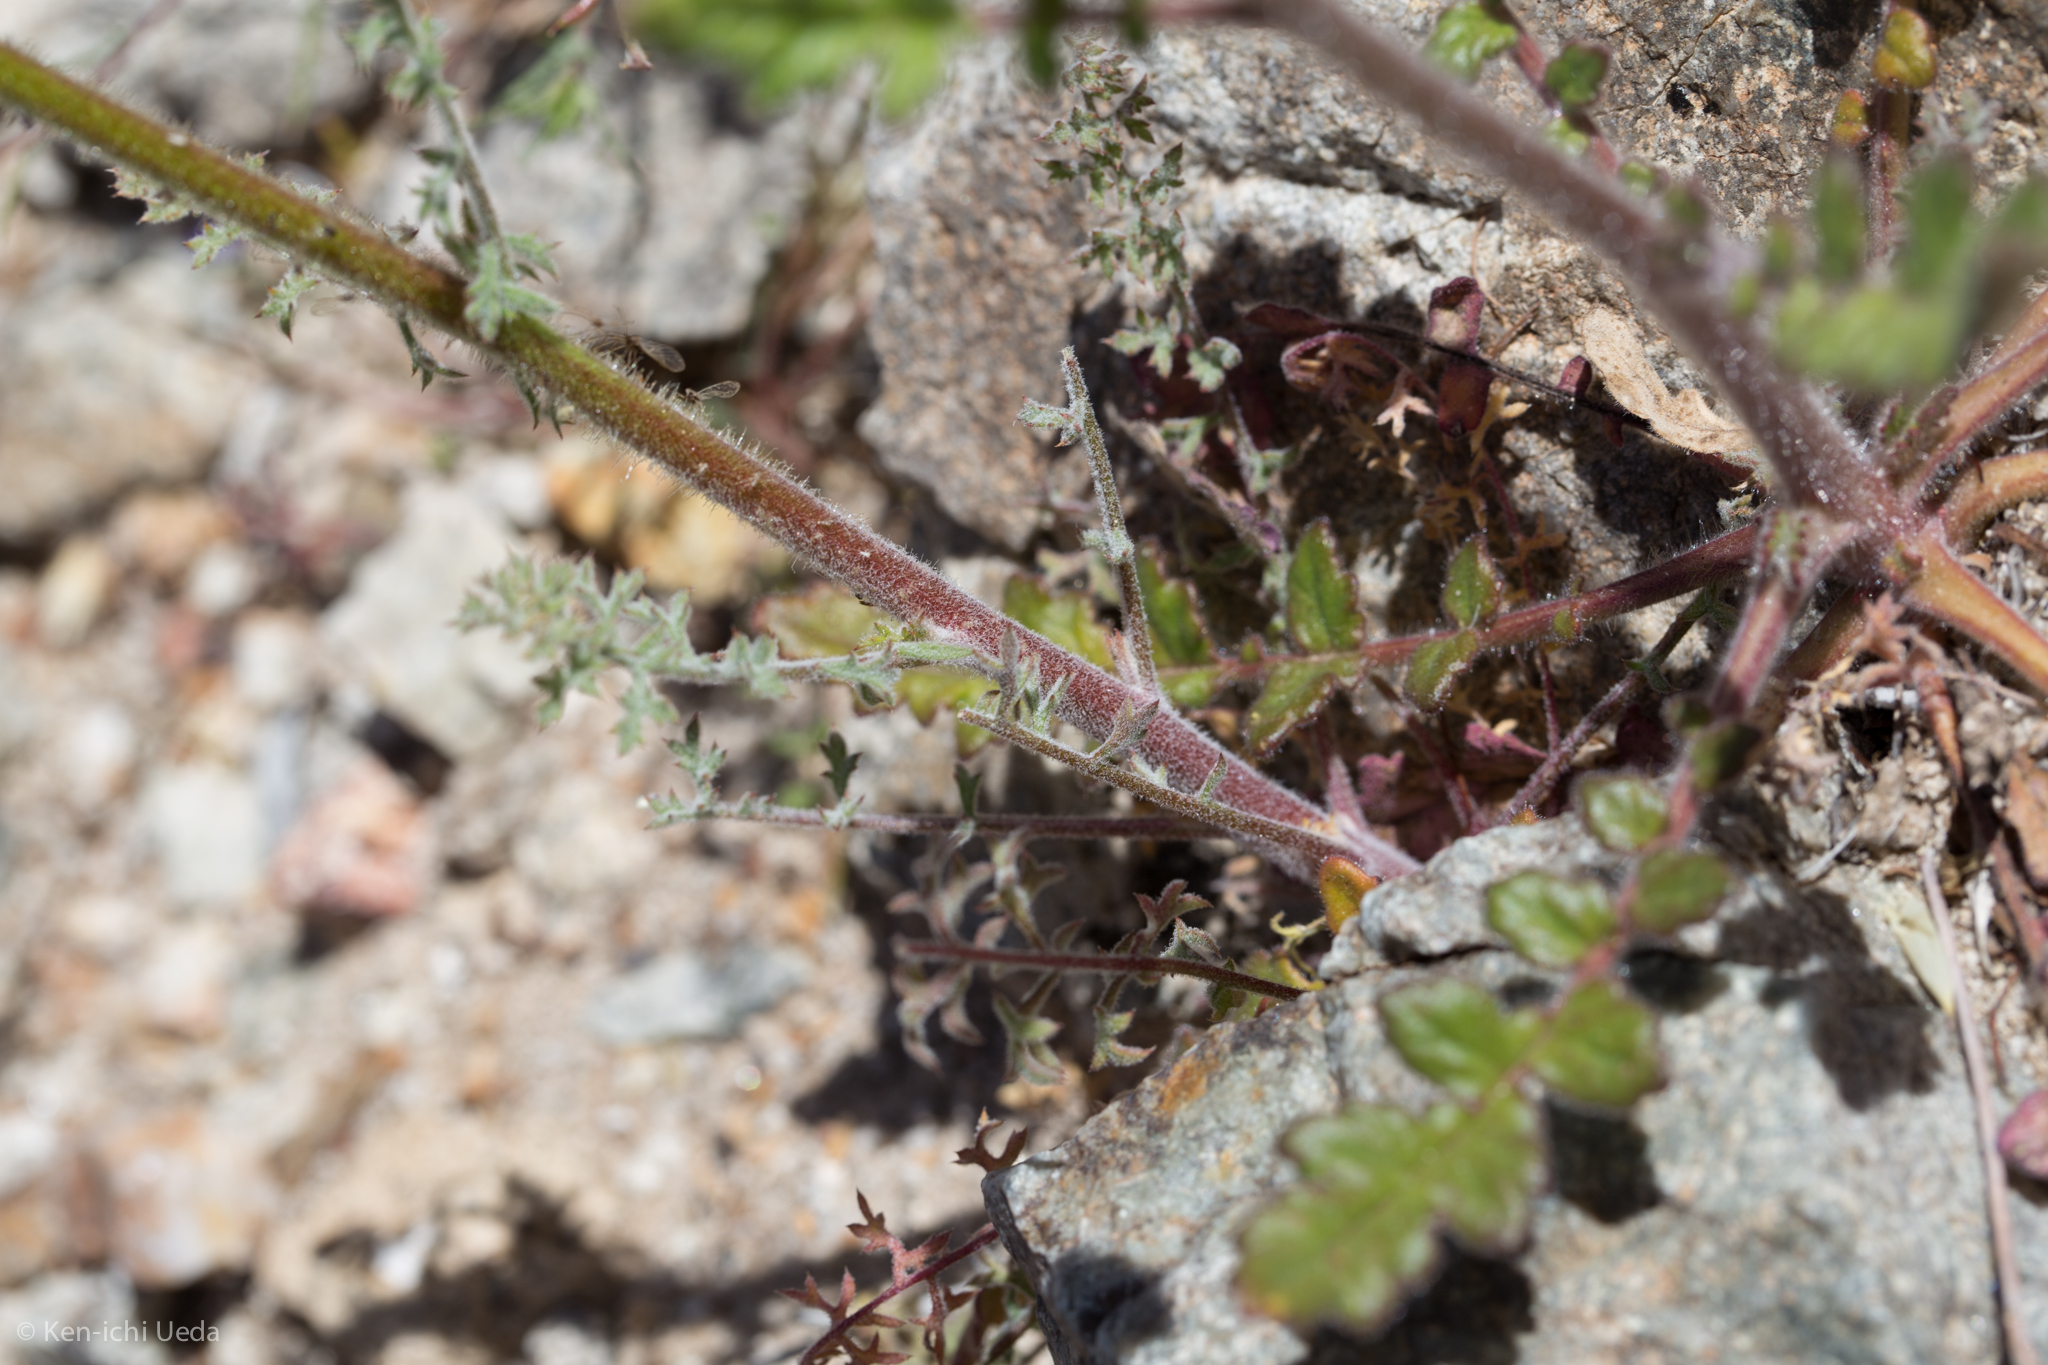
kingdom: Plantae
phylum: Tracheophyta
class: Magnoliopsida
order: Ericales
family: Polemoniaceae
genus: Gilia
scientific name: Gilia stellata
